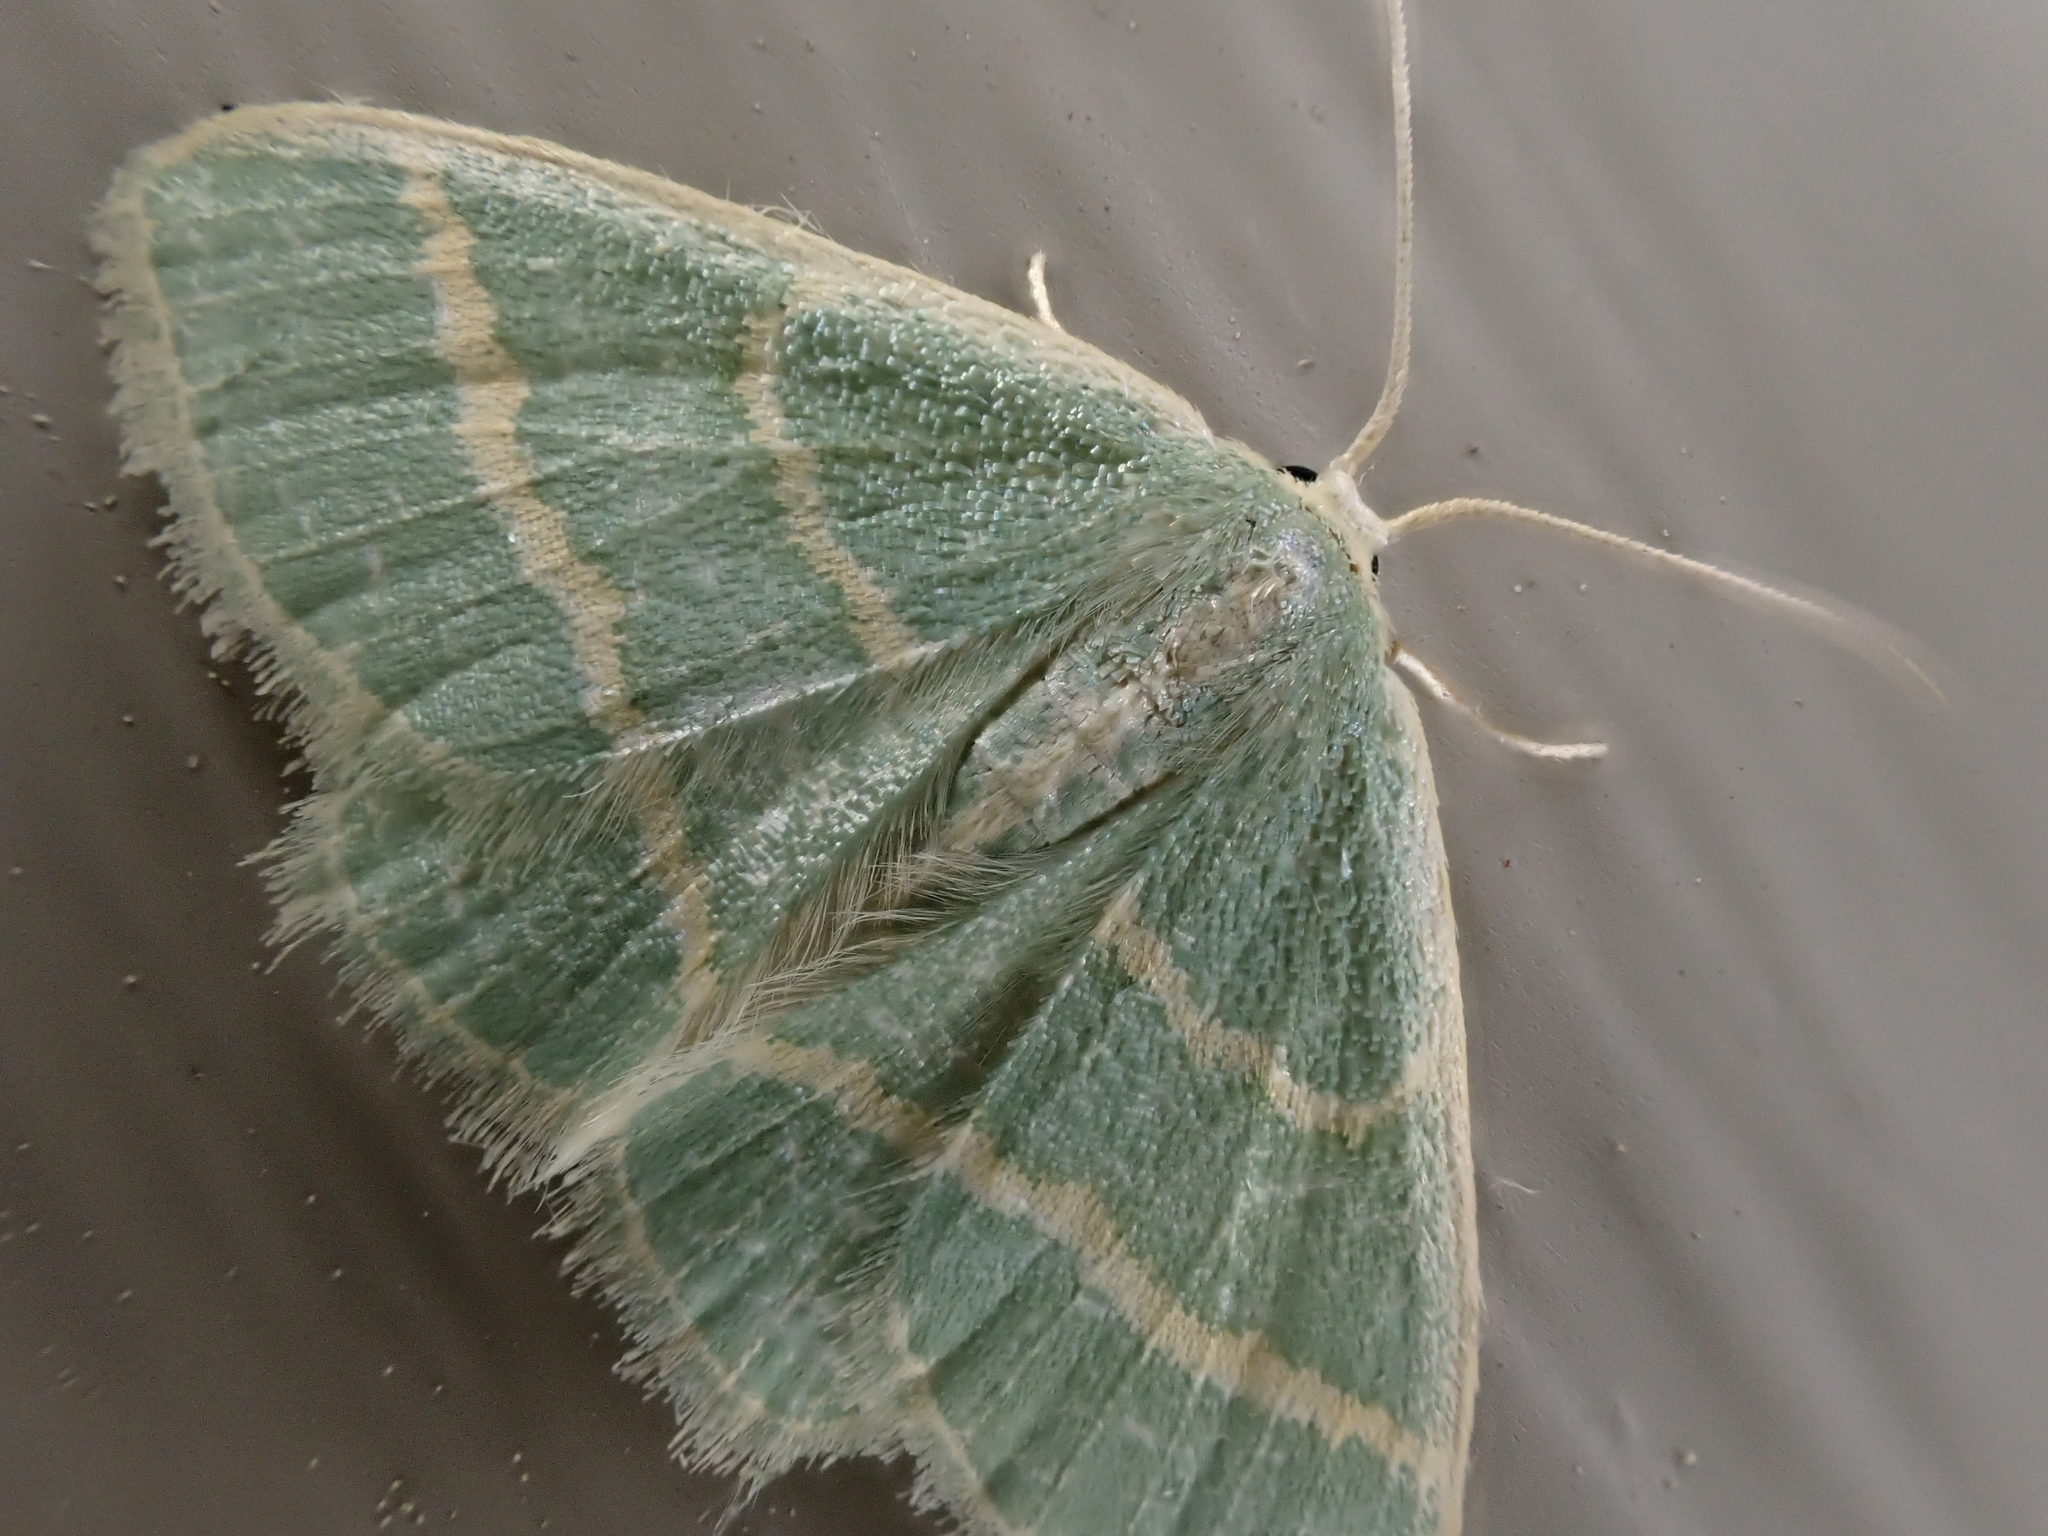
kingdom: Animalia
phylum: Arthropoda
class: Insecta
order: Lepidoptera
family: Geometridae
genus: Chlorochlamys
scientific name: Chlorochlamys chloroleucaria
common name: Blackberry looper
